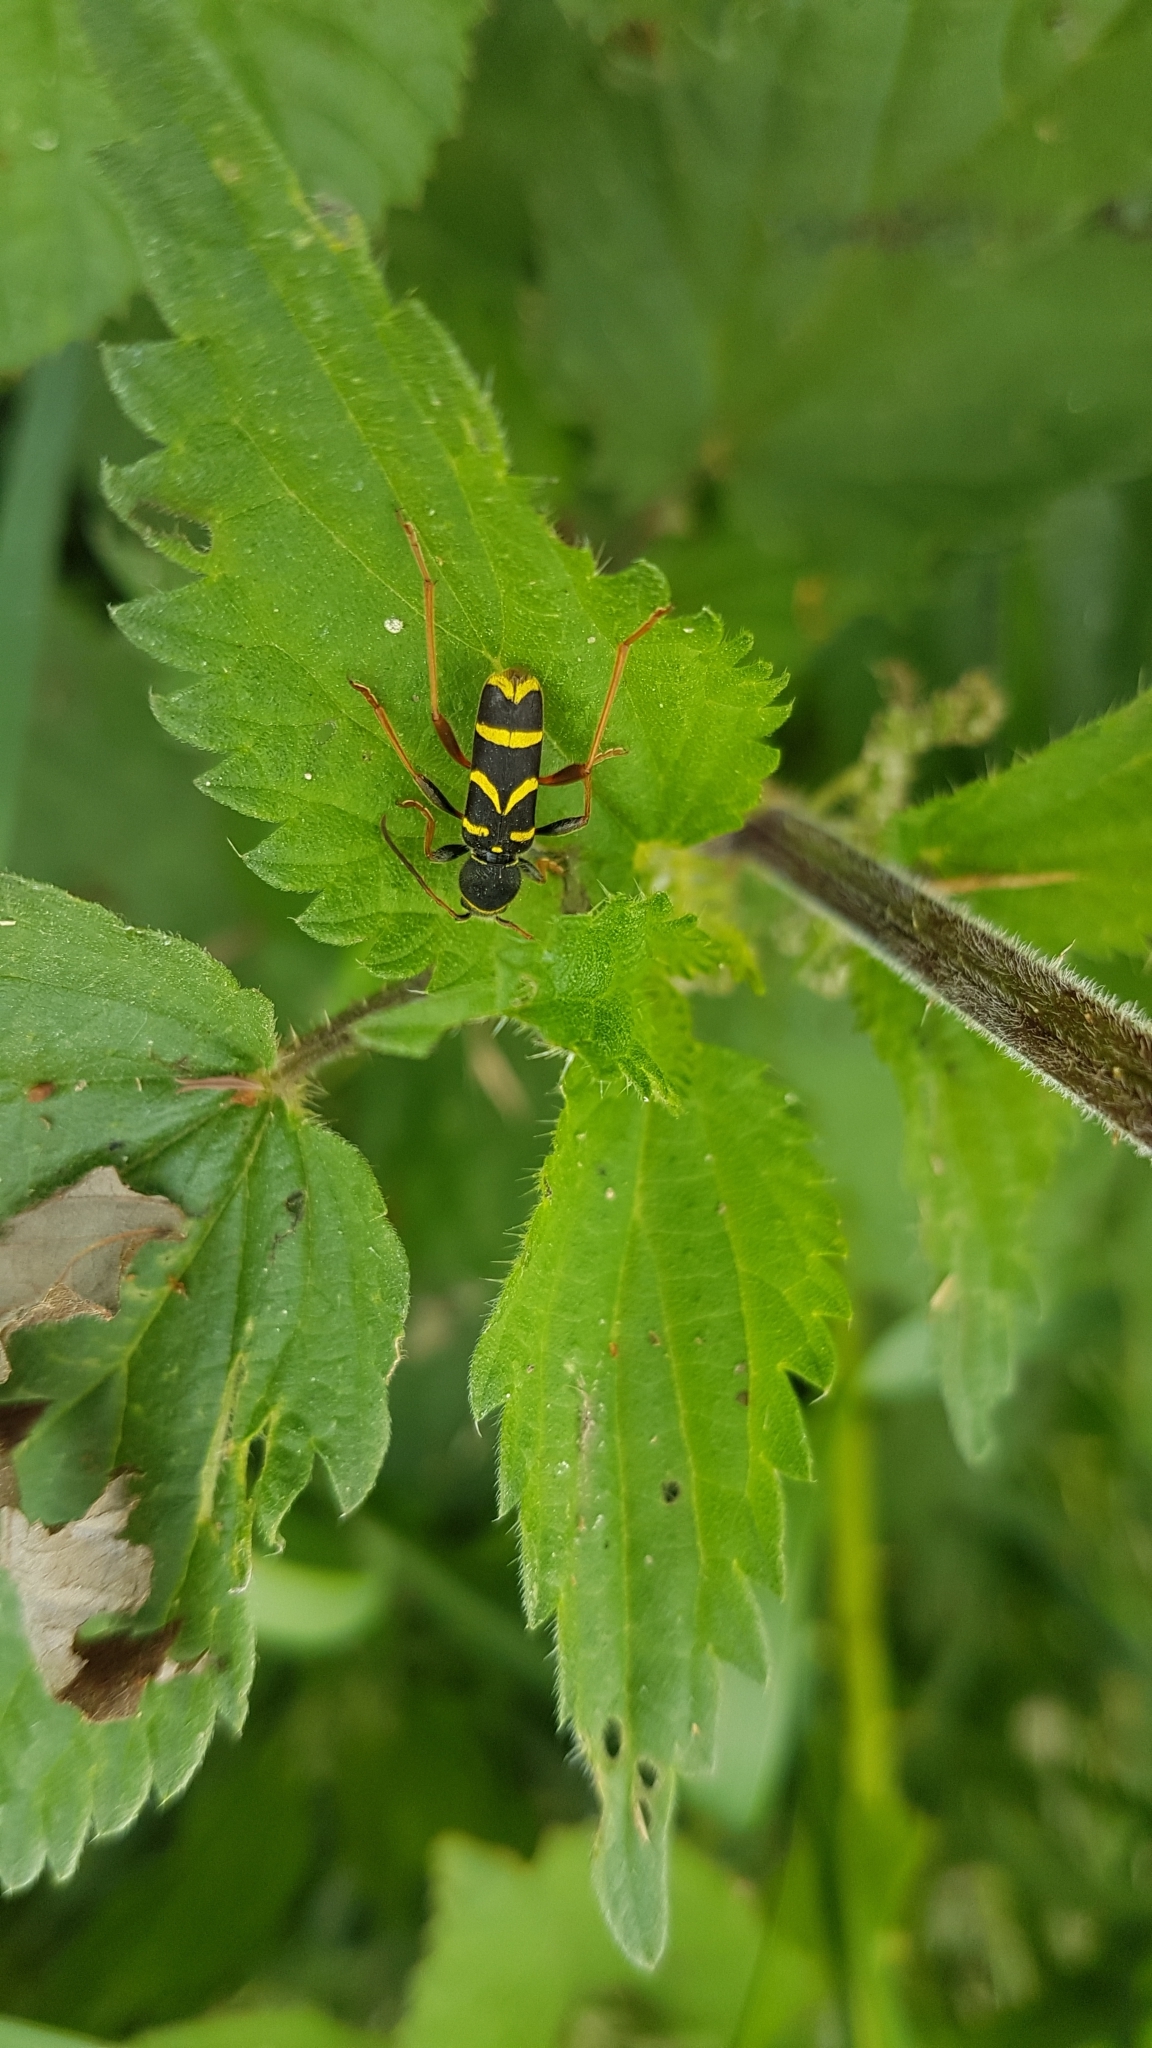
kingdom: Animalia
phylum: Arthropoda
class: Insecta
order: Coleoptera
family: Cerambycidae
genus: Clytus
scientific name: Clytus arietis
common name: Wasp beetle
